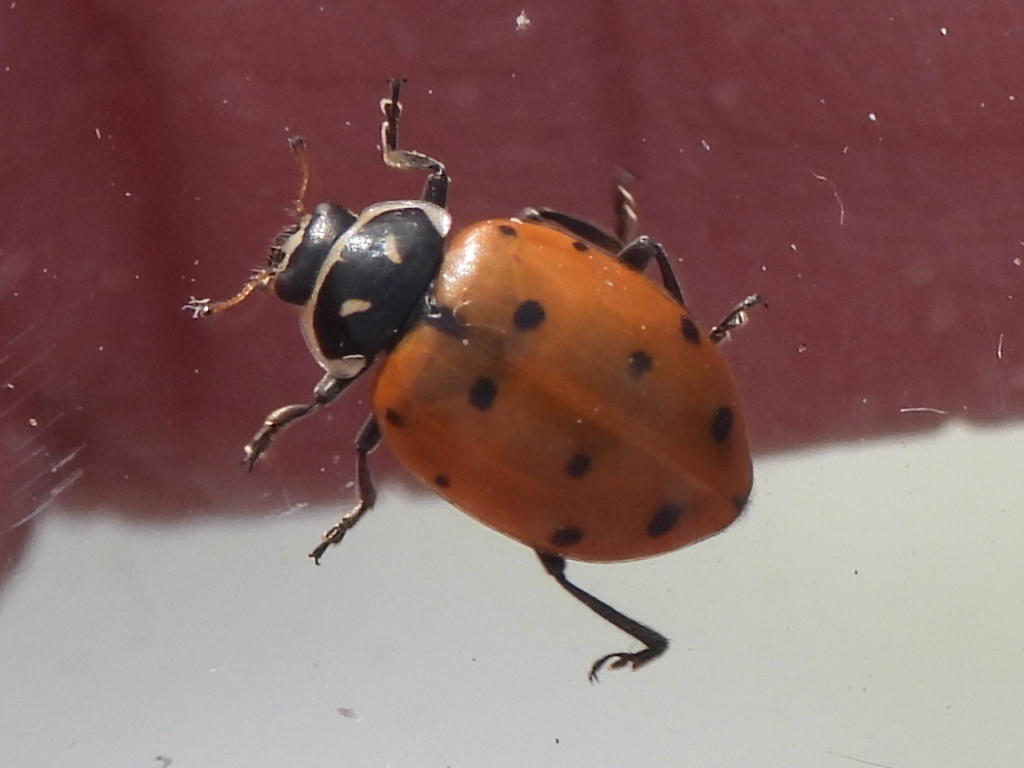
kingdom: Animalia
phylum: Arthropoda
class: Insecta
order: Coleoptera
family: Coccinellidae
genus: Hippodamia
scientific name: Hippodamia convergens
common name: Convergent lady beetle
